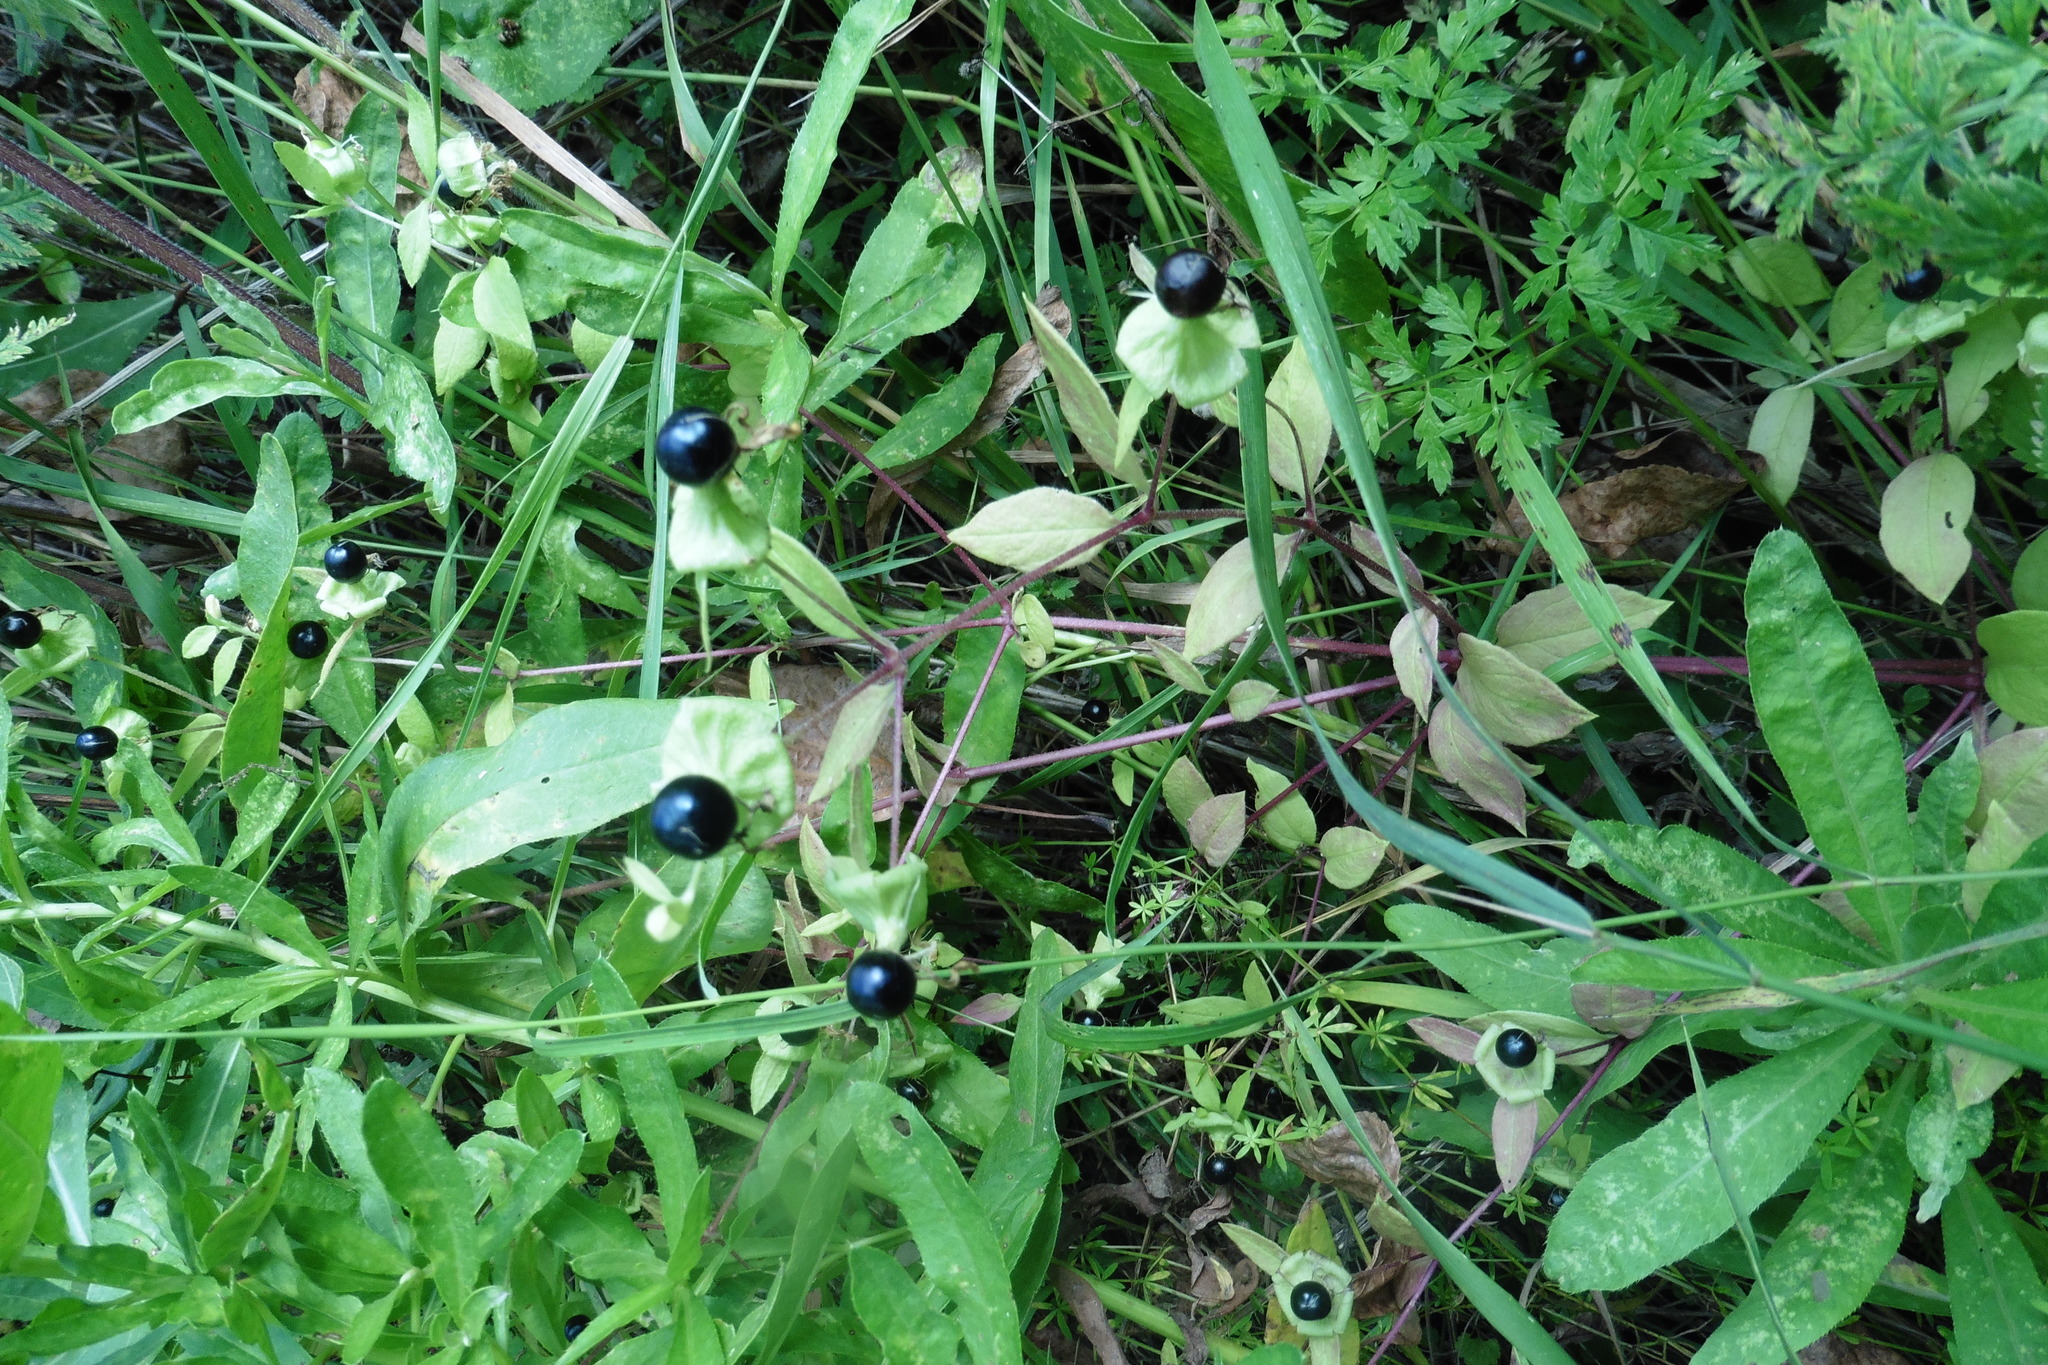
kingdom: Plantae
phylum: Tracheophyta
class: Magnoliopsida
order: Caryophyllales
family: Caryophyllaceae
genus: Silene
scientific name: Silene baccifera
